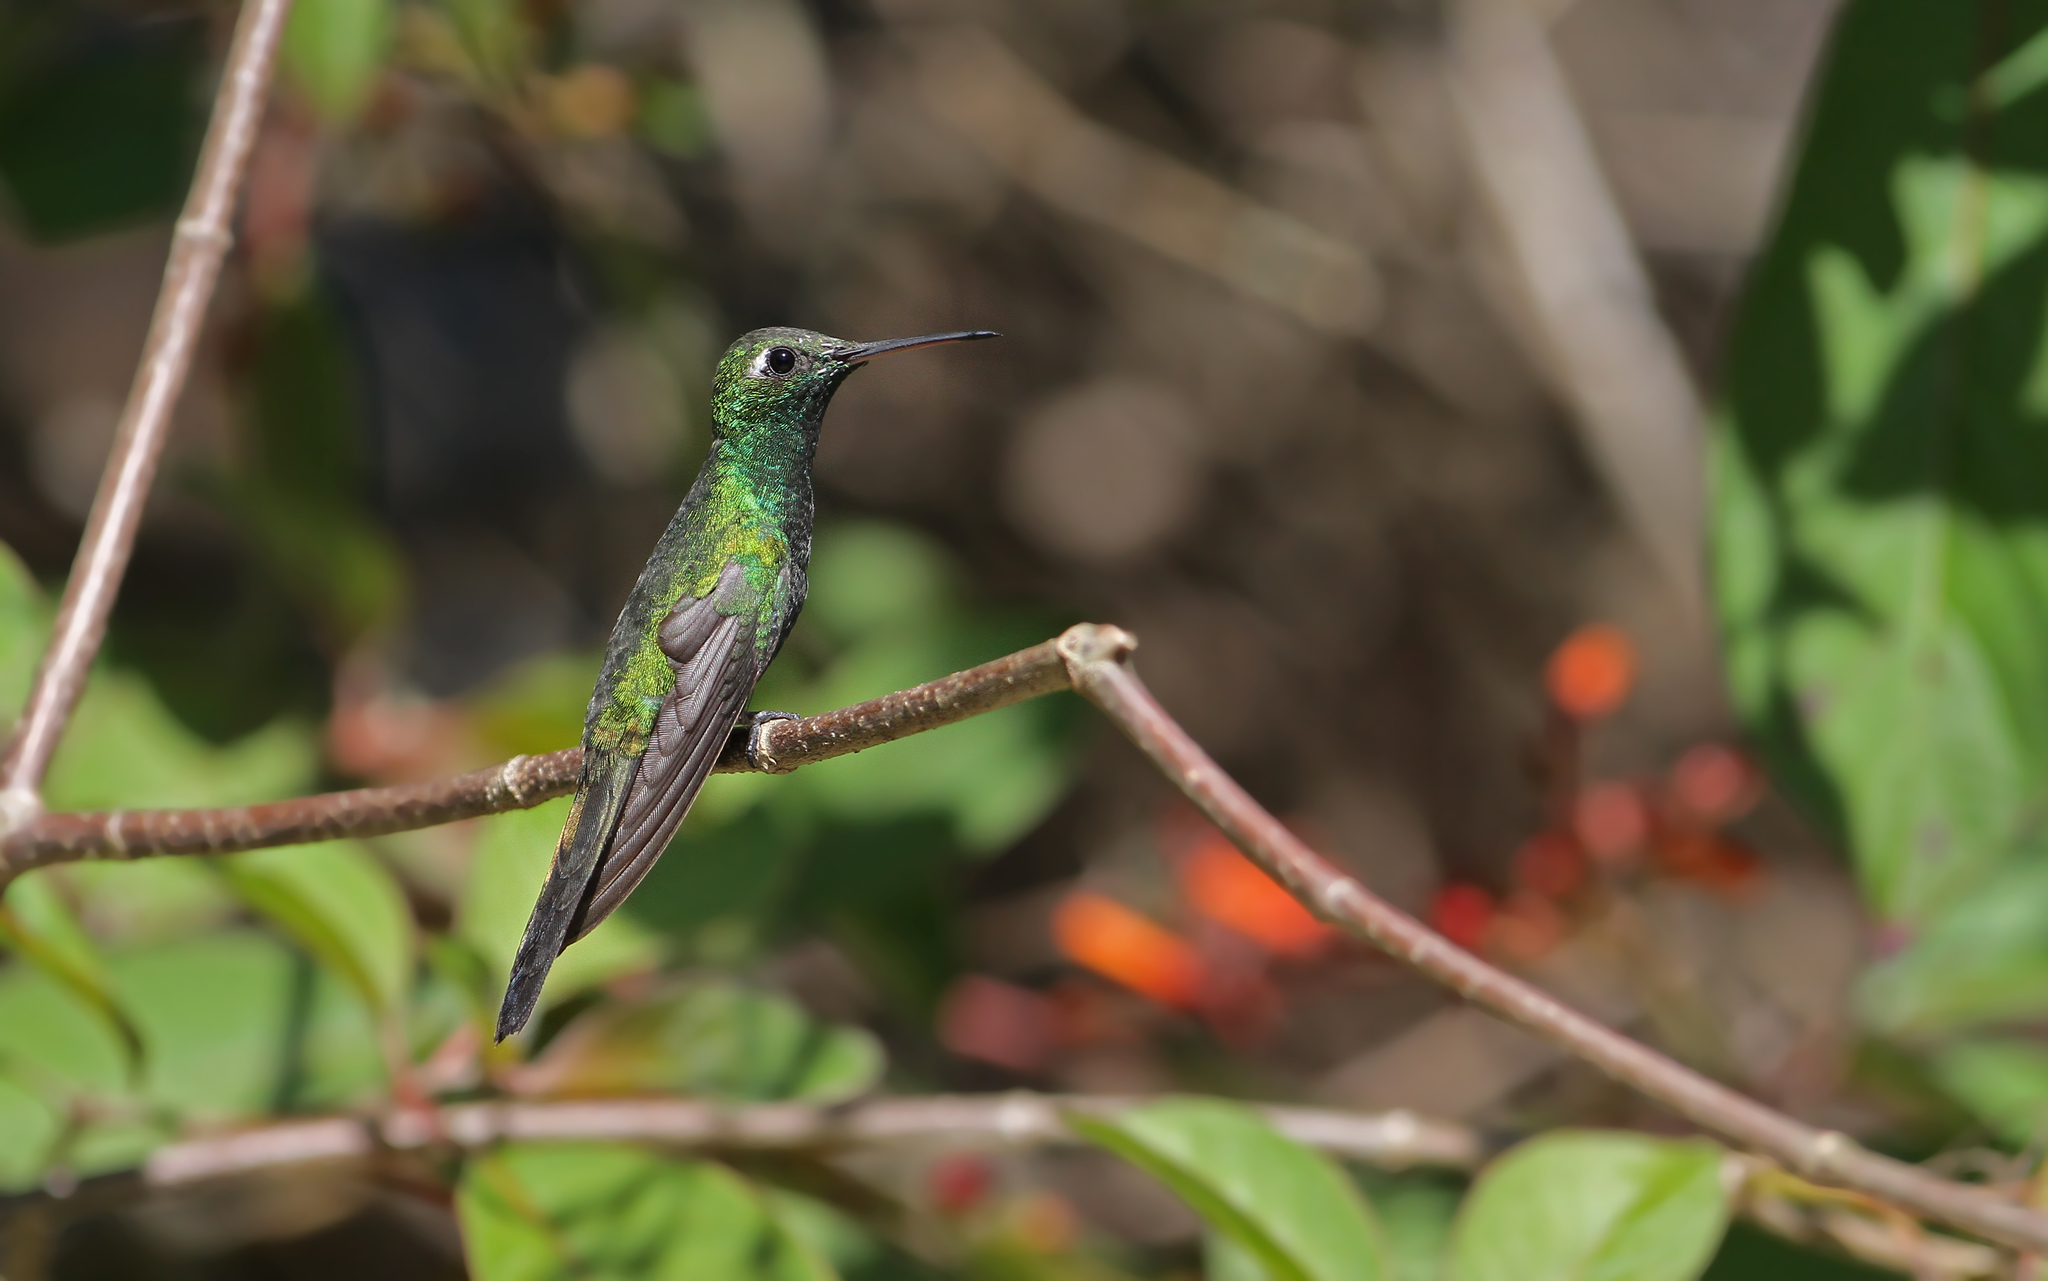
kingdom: Animalia
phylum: Chordata
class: Aves
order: Apodiformes
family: Trochilidae
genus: Riccordia
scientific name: Riccordia ricordii
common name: Cuban emerald
